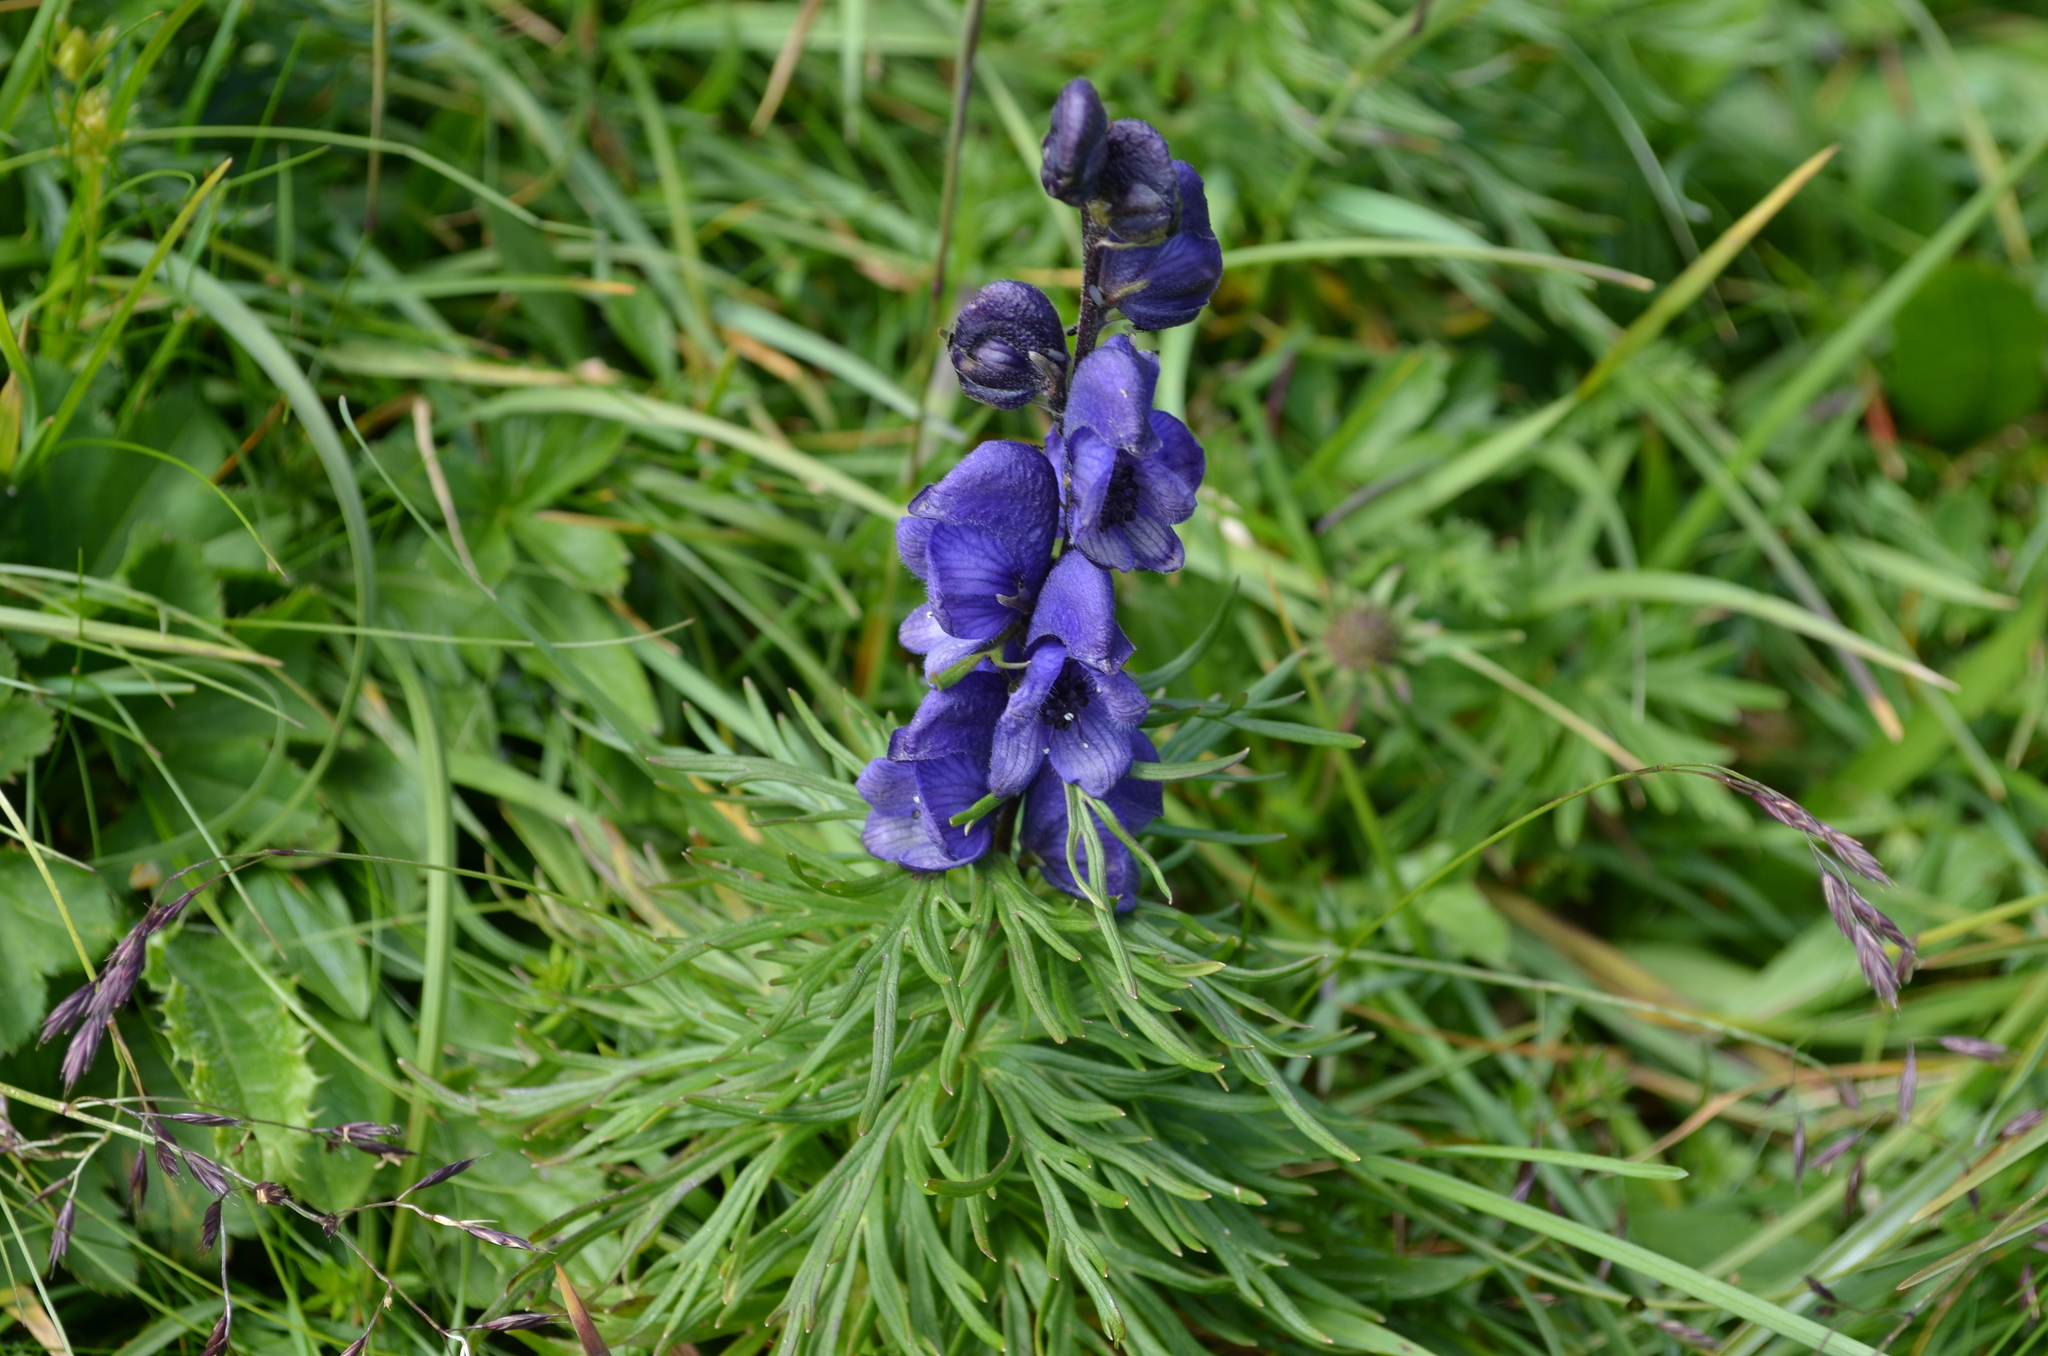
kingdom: Plantae
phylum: Tracheophyta
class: Magnoliopsida
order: Ranunculales
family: Ranunculaceae
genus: Aconitum
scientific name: Aconitum napellus
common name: Garden monkshood
